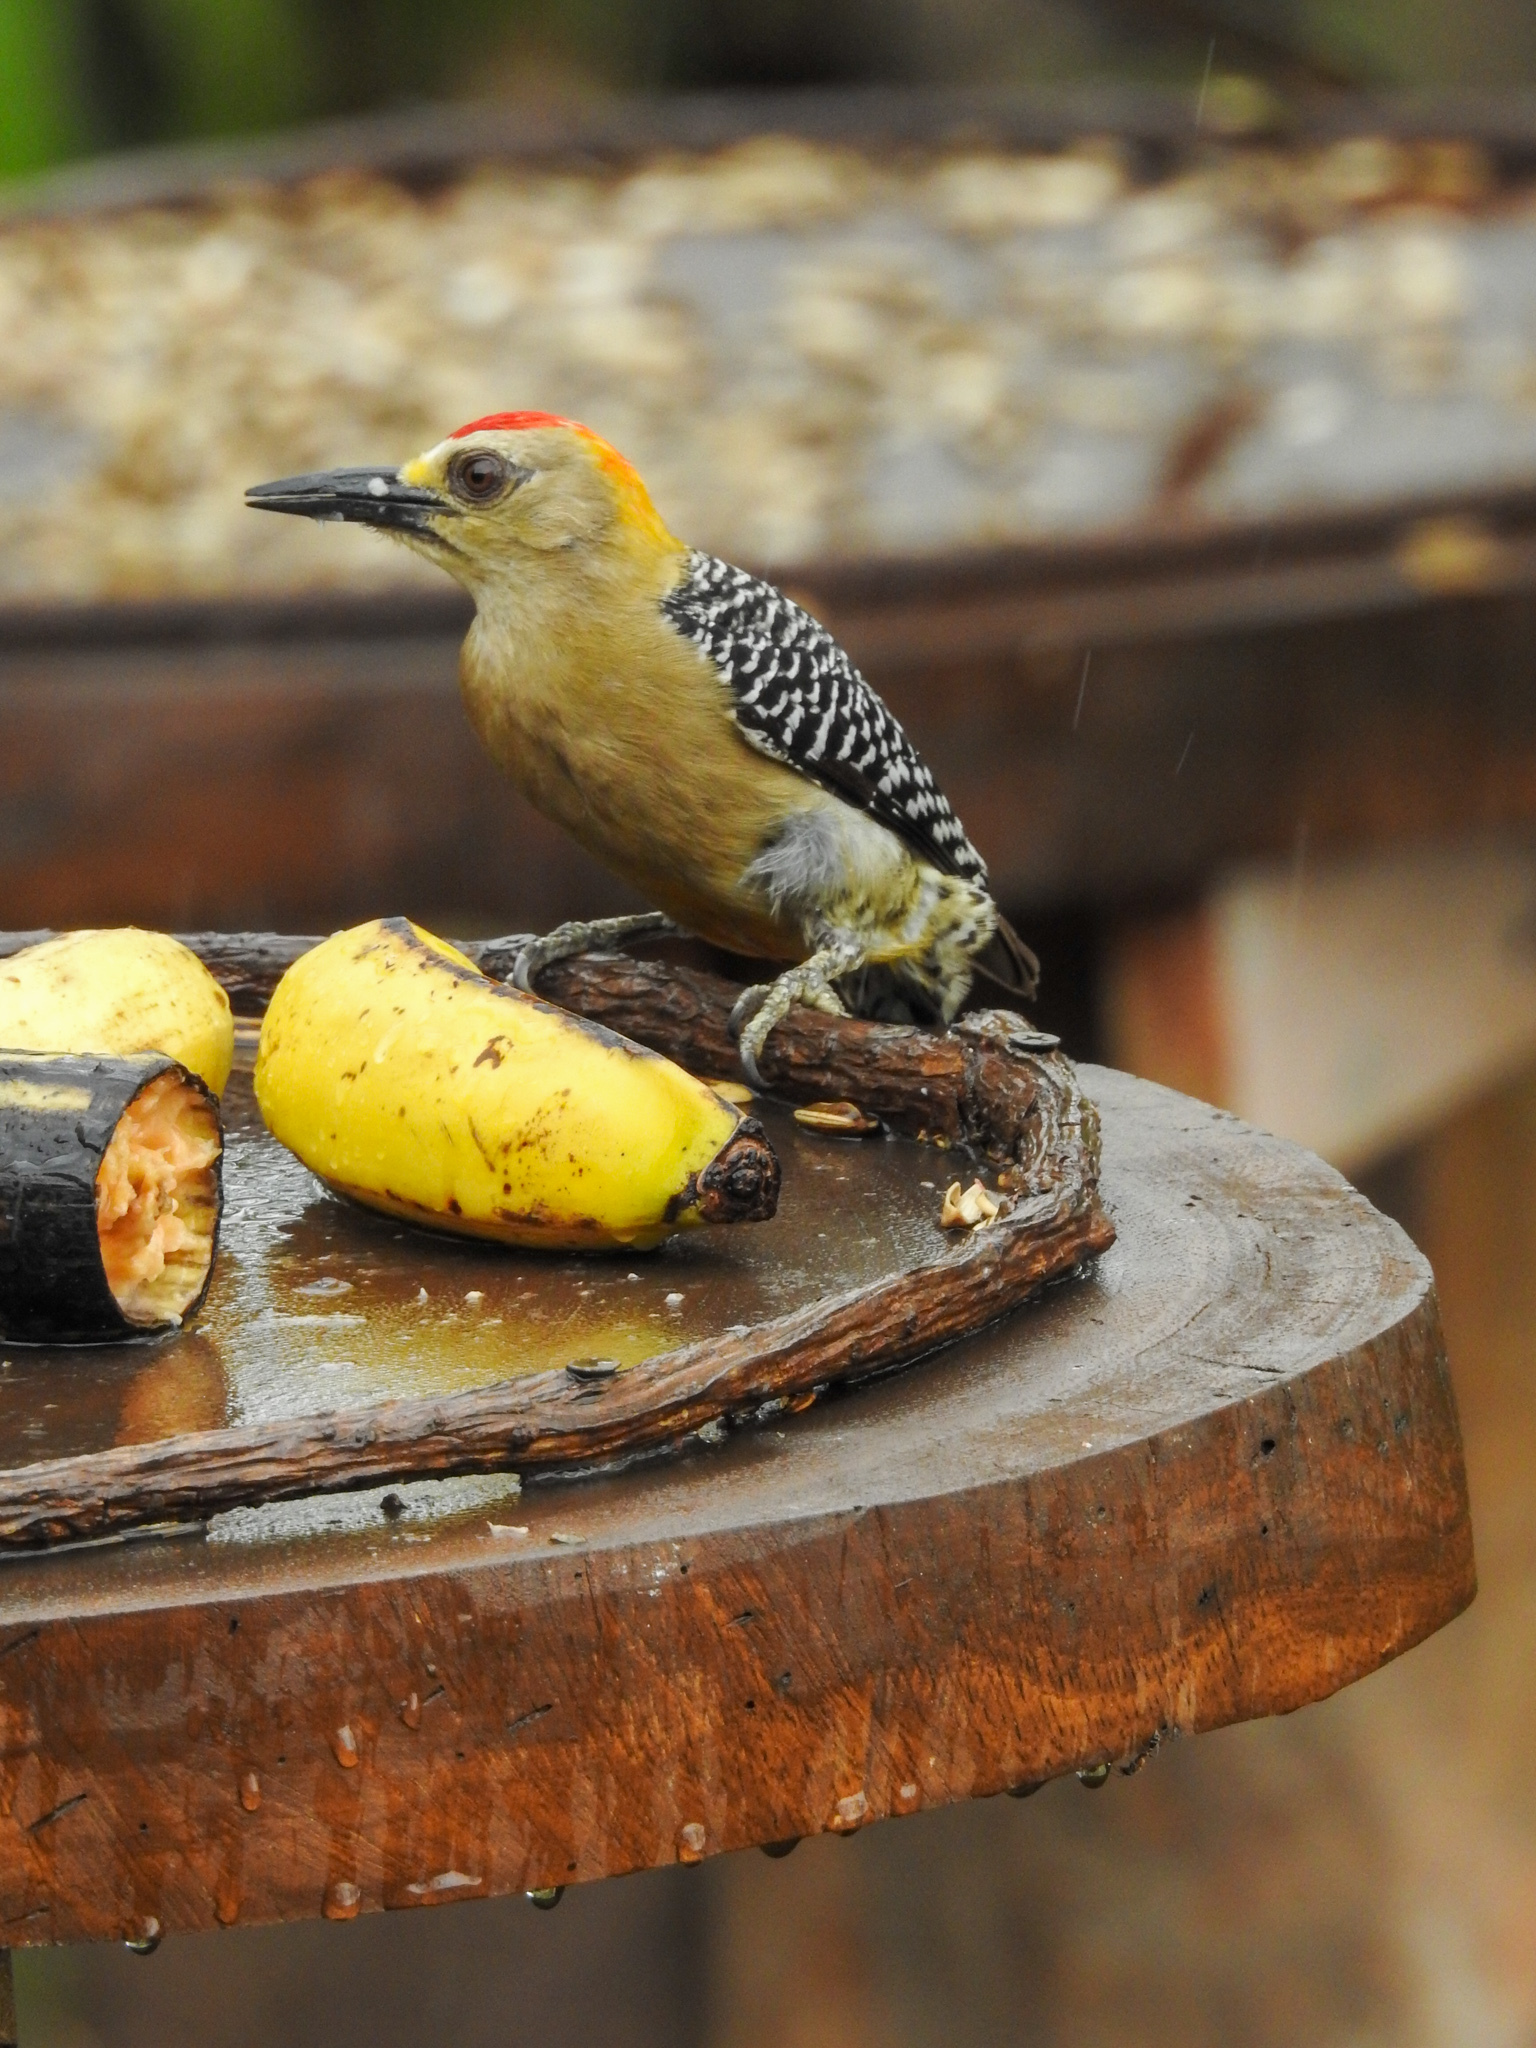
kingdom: Animalia
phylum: Chordata
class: Aves
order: Piciformes
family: Picidae
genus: Melanerpes
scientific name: Melanerpes hoffmannii
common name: Hoffmann's woodpecker
